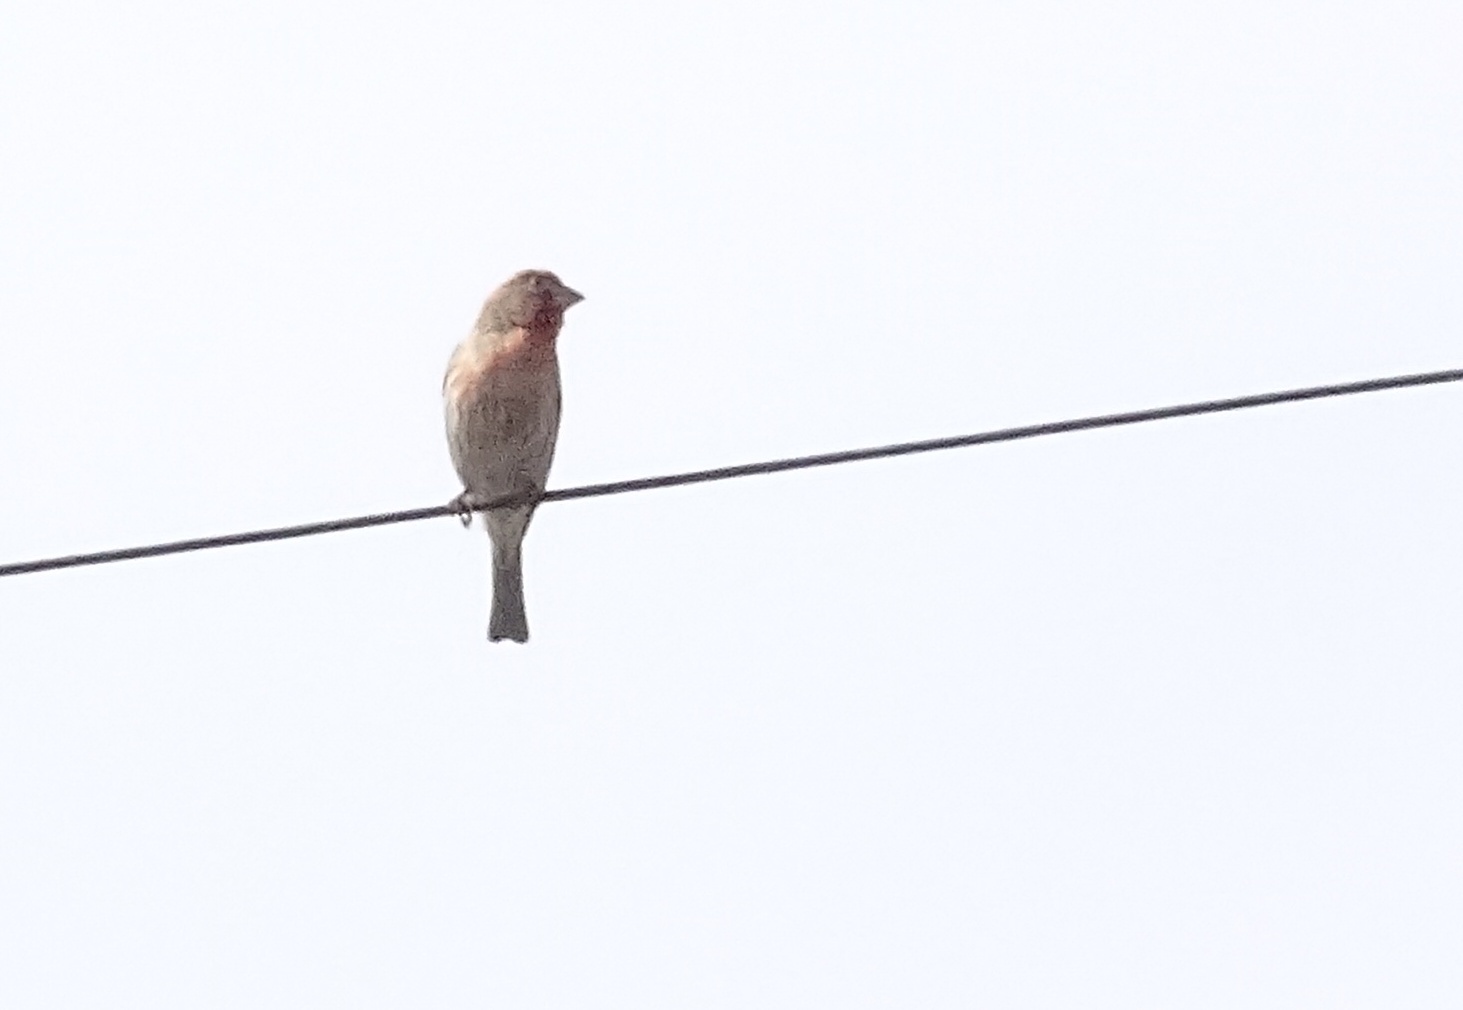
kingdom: Animalia
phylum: Chordata
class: Aves
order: Passeriformes
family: Fringillidae
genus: Haemorhous
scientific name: Haemorhous mexicanus
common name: House finch
